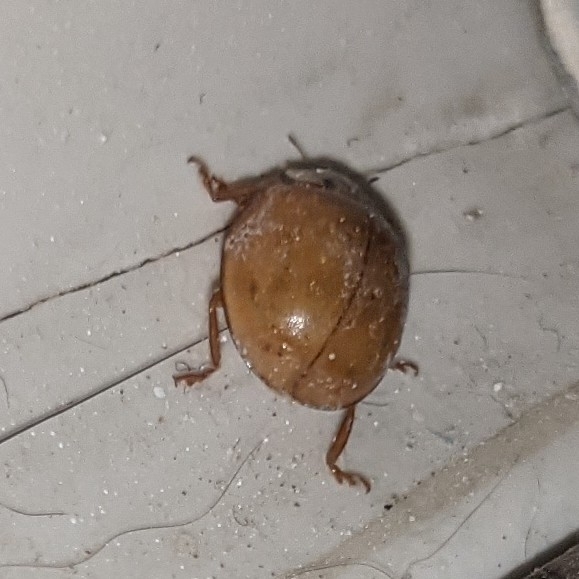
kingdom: Animalia
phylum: Arthropoda
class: Insecta
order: Coleoptera
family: Coccinellidae
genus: Harmonia
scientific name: Harmonia axyridis
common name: Harlequin ladybird
